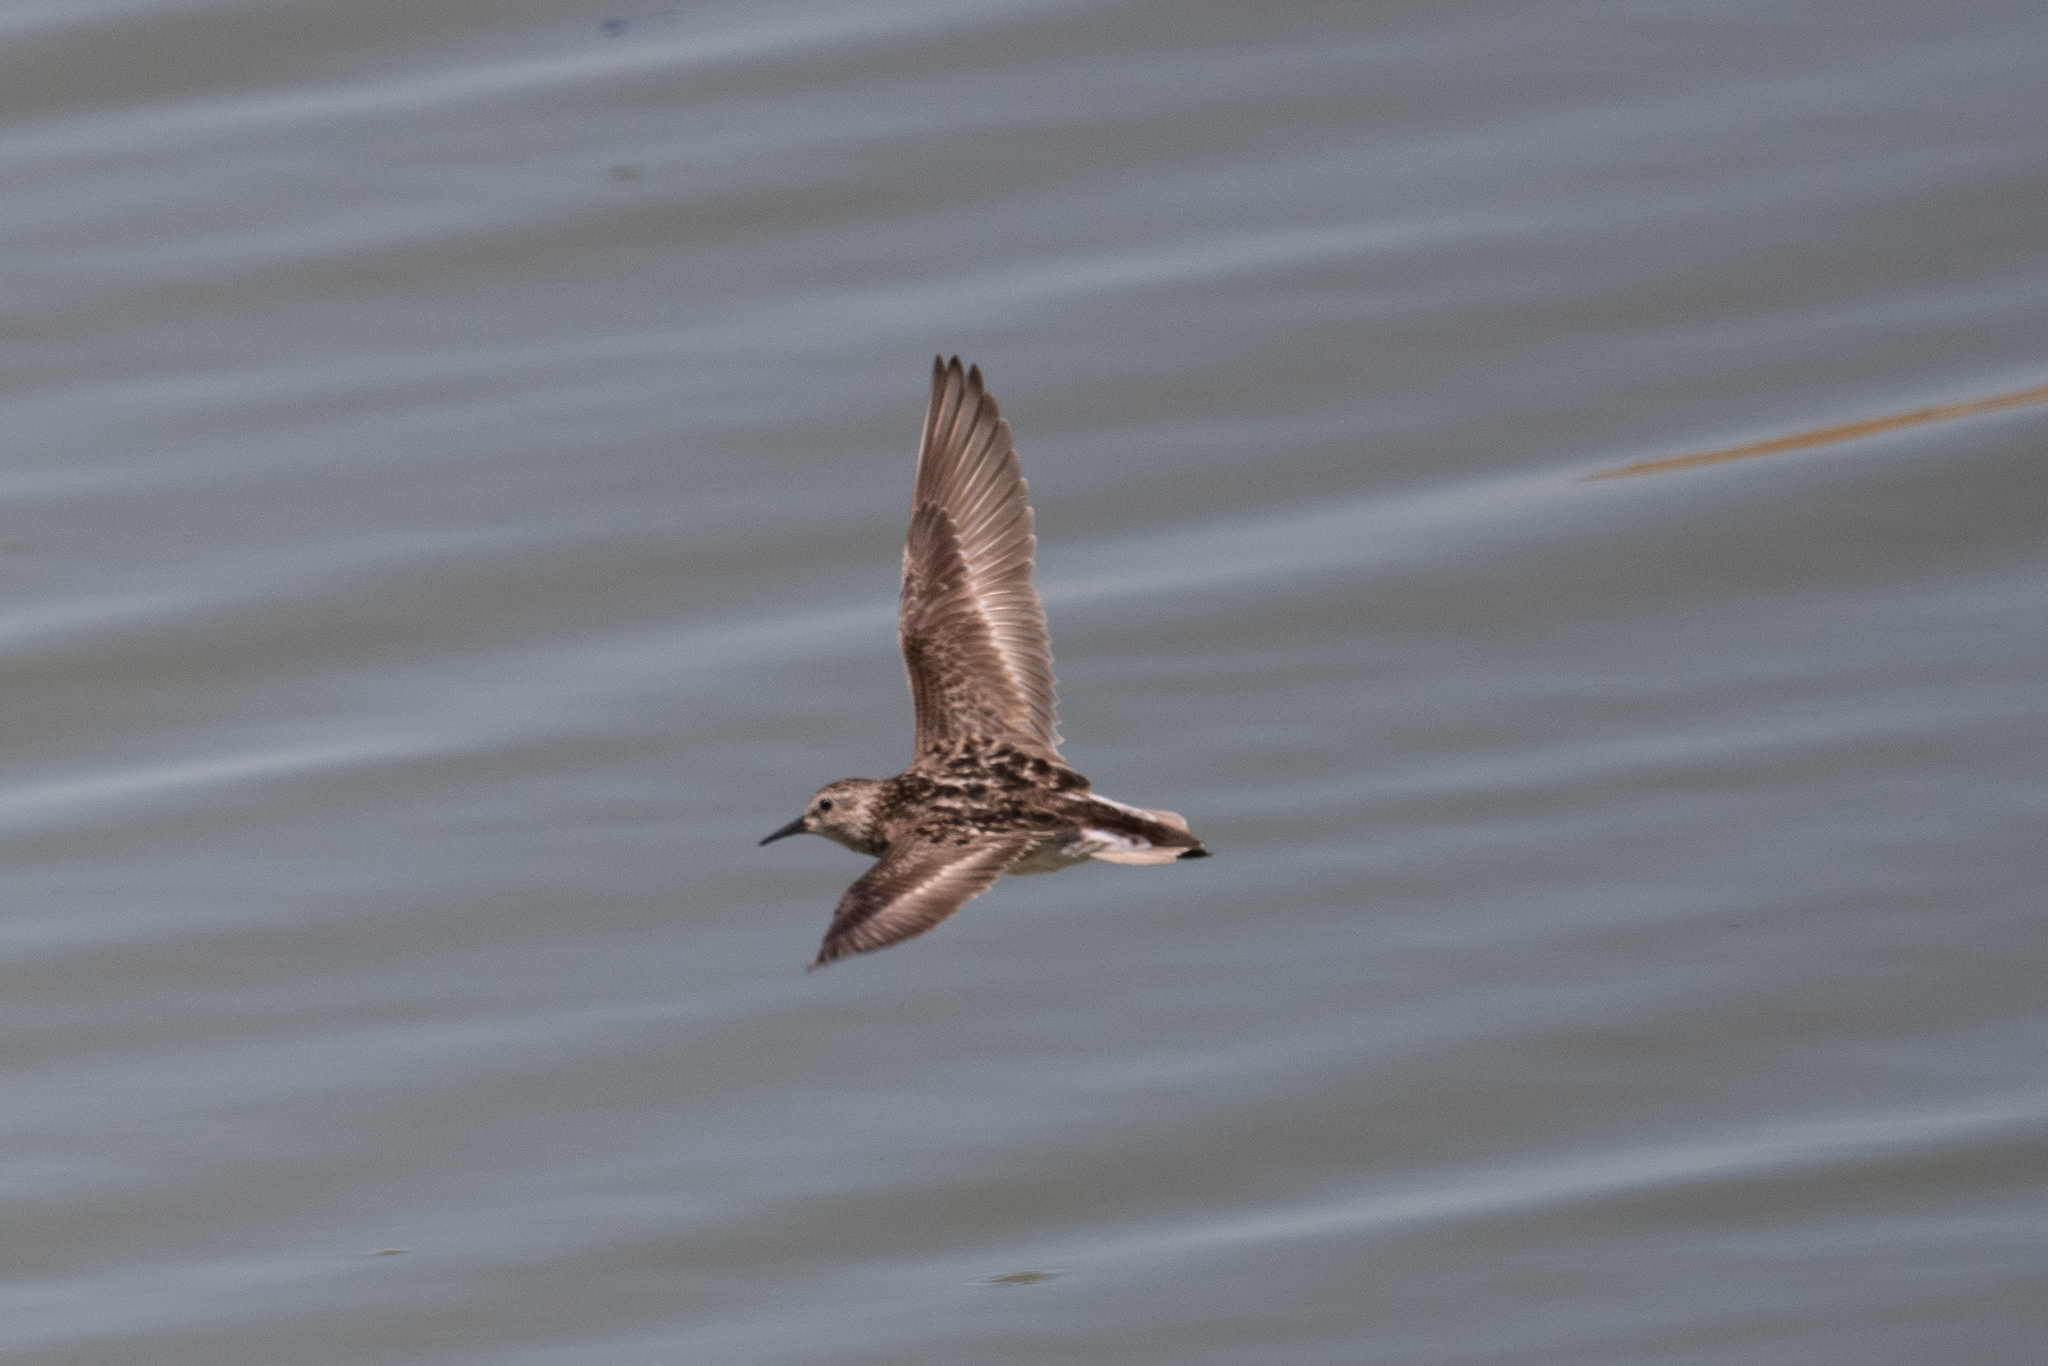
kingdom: Animalia
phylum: Chordata
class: Aves
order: Charadriiformes
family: Scolopacidae
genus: Calidris
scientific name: Calidris minutilla
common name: Least sandpiper
